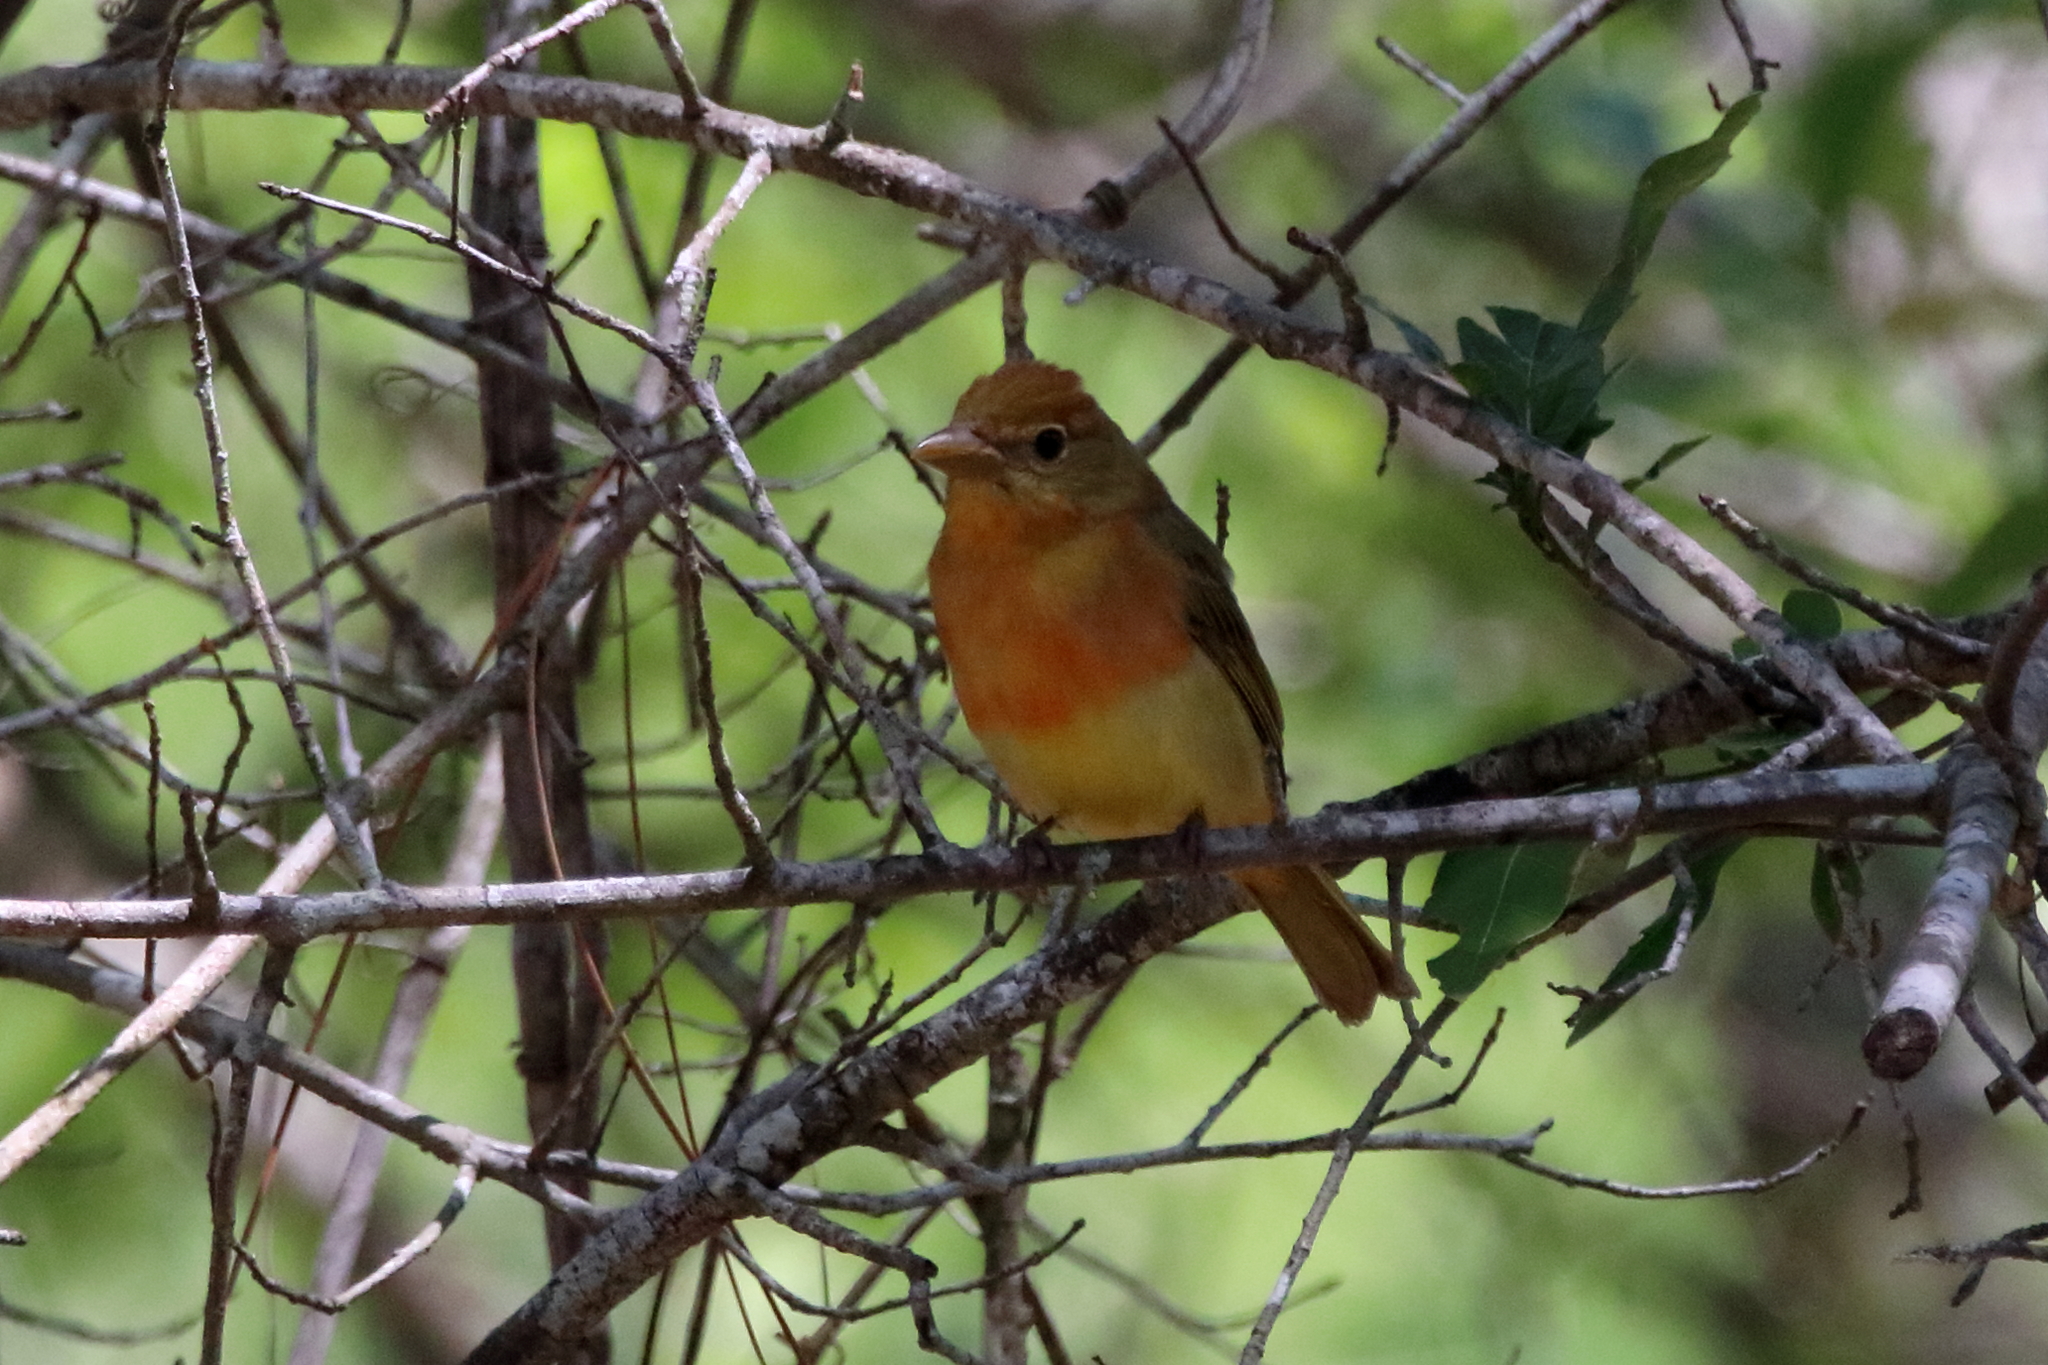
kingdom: Animalia
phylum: Chordata
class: Aves
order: Passeriformes
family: Cardinalidae
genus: Piranga
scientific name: Piranga rubra
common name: Summer tanager
